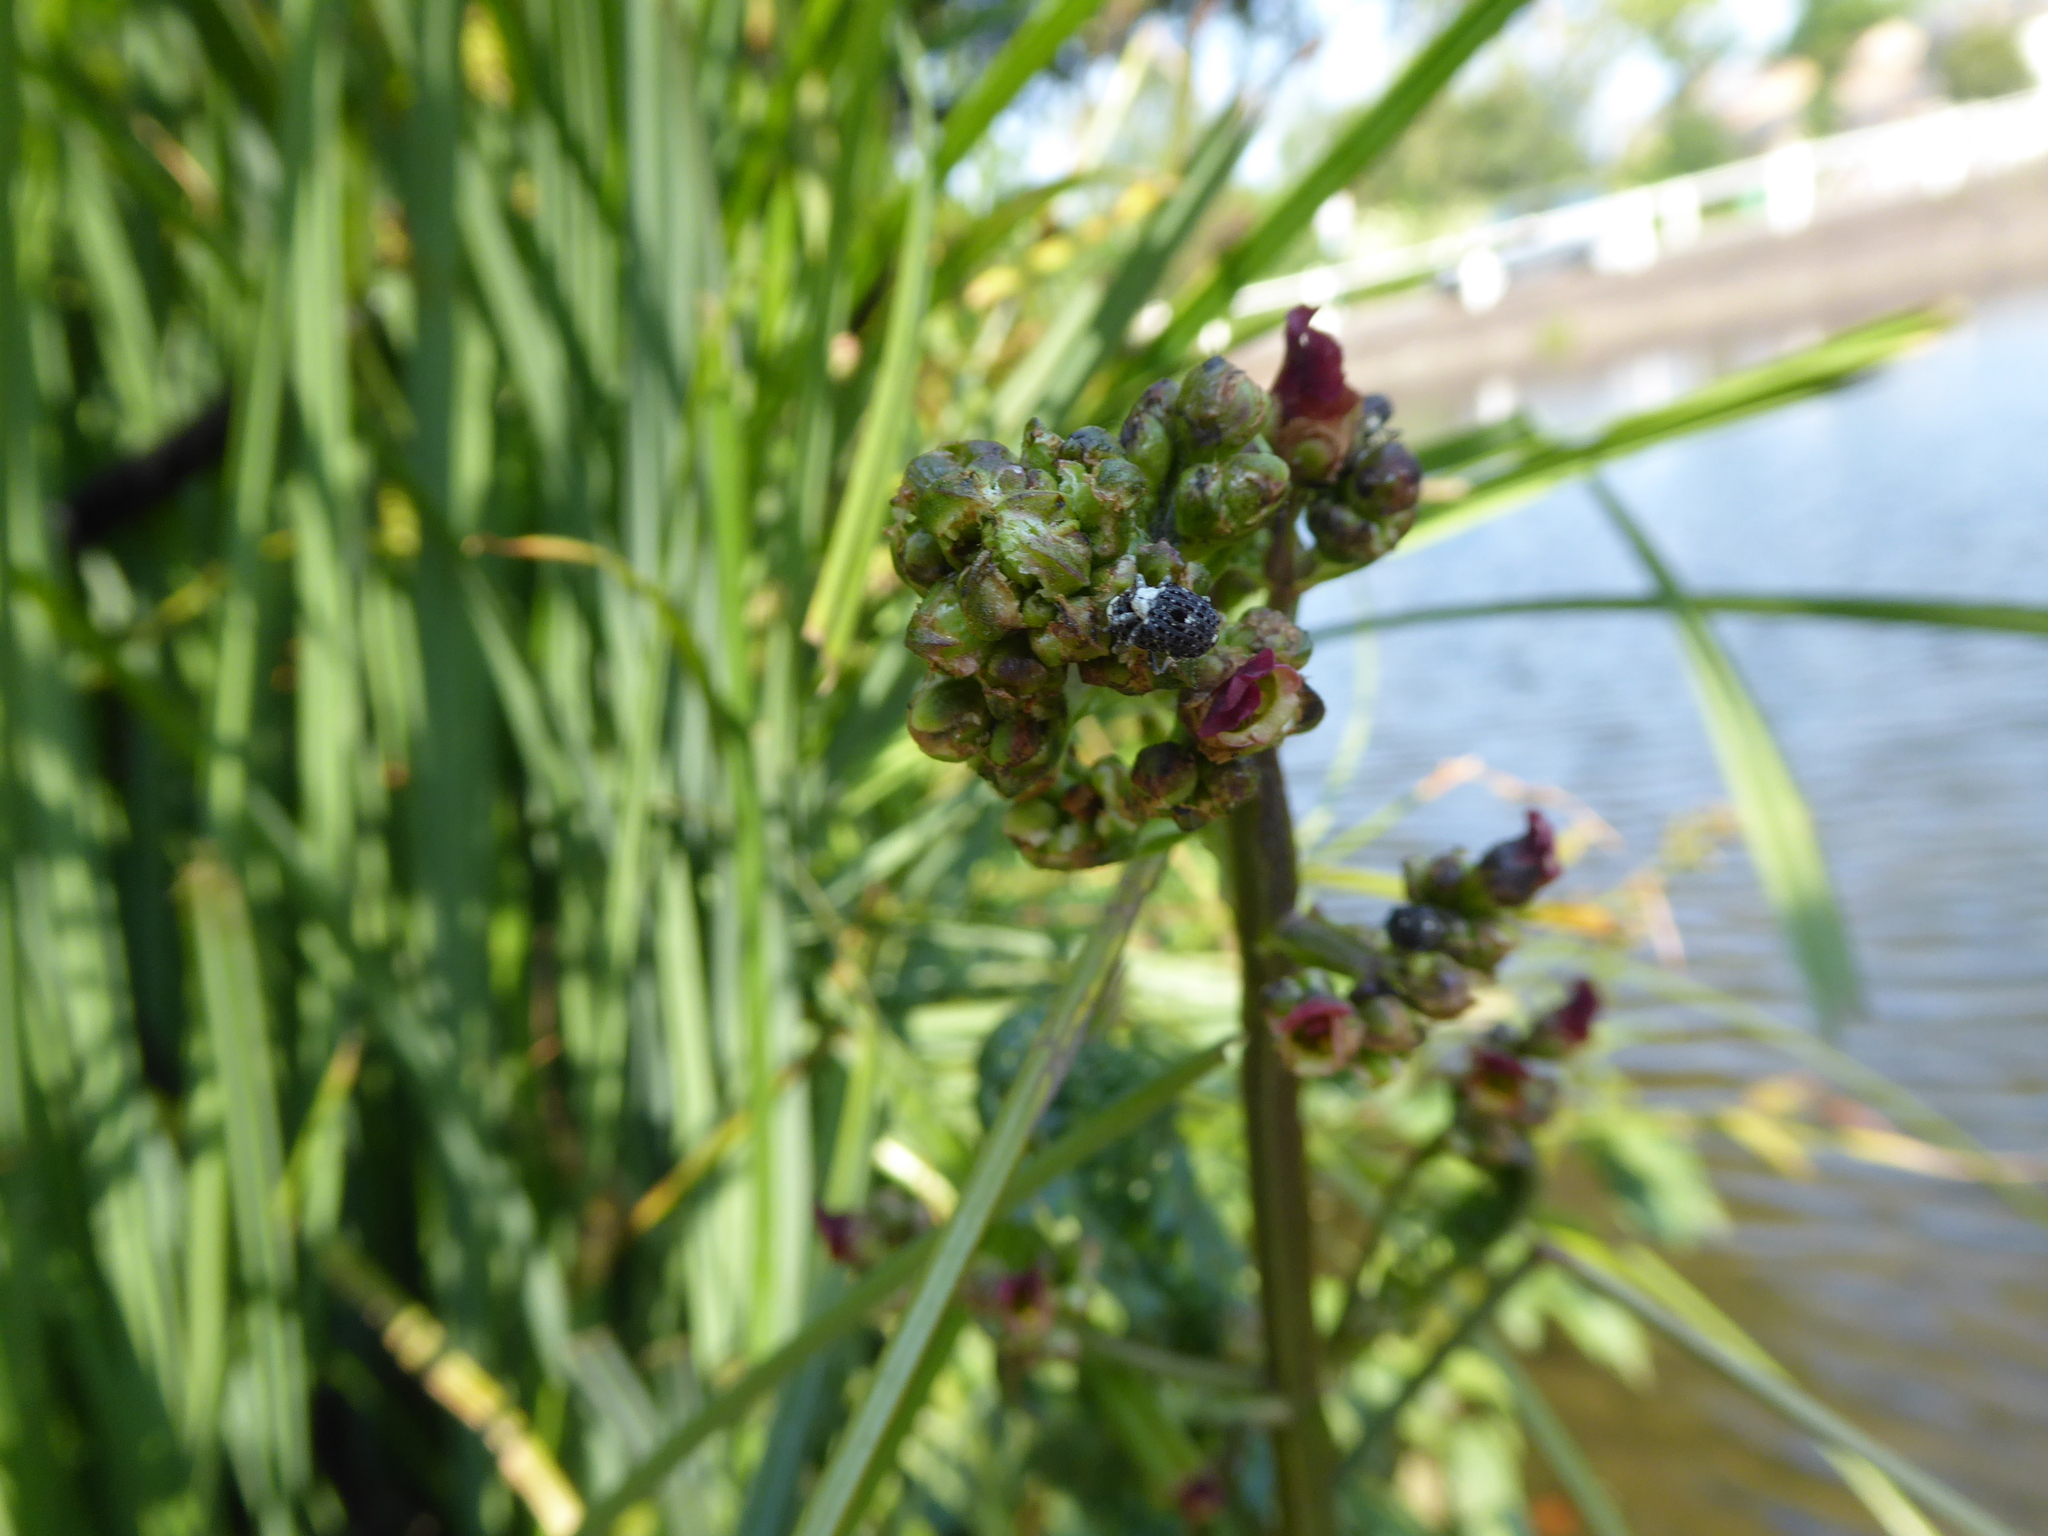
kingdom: Animalia
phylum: Arthropoda
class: Insecta
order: Coleoptera
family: Curculionidae
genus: Cionus
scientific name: Cionus scrophulariae
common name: Common figwort weevil
